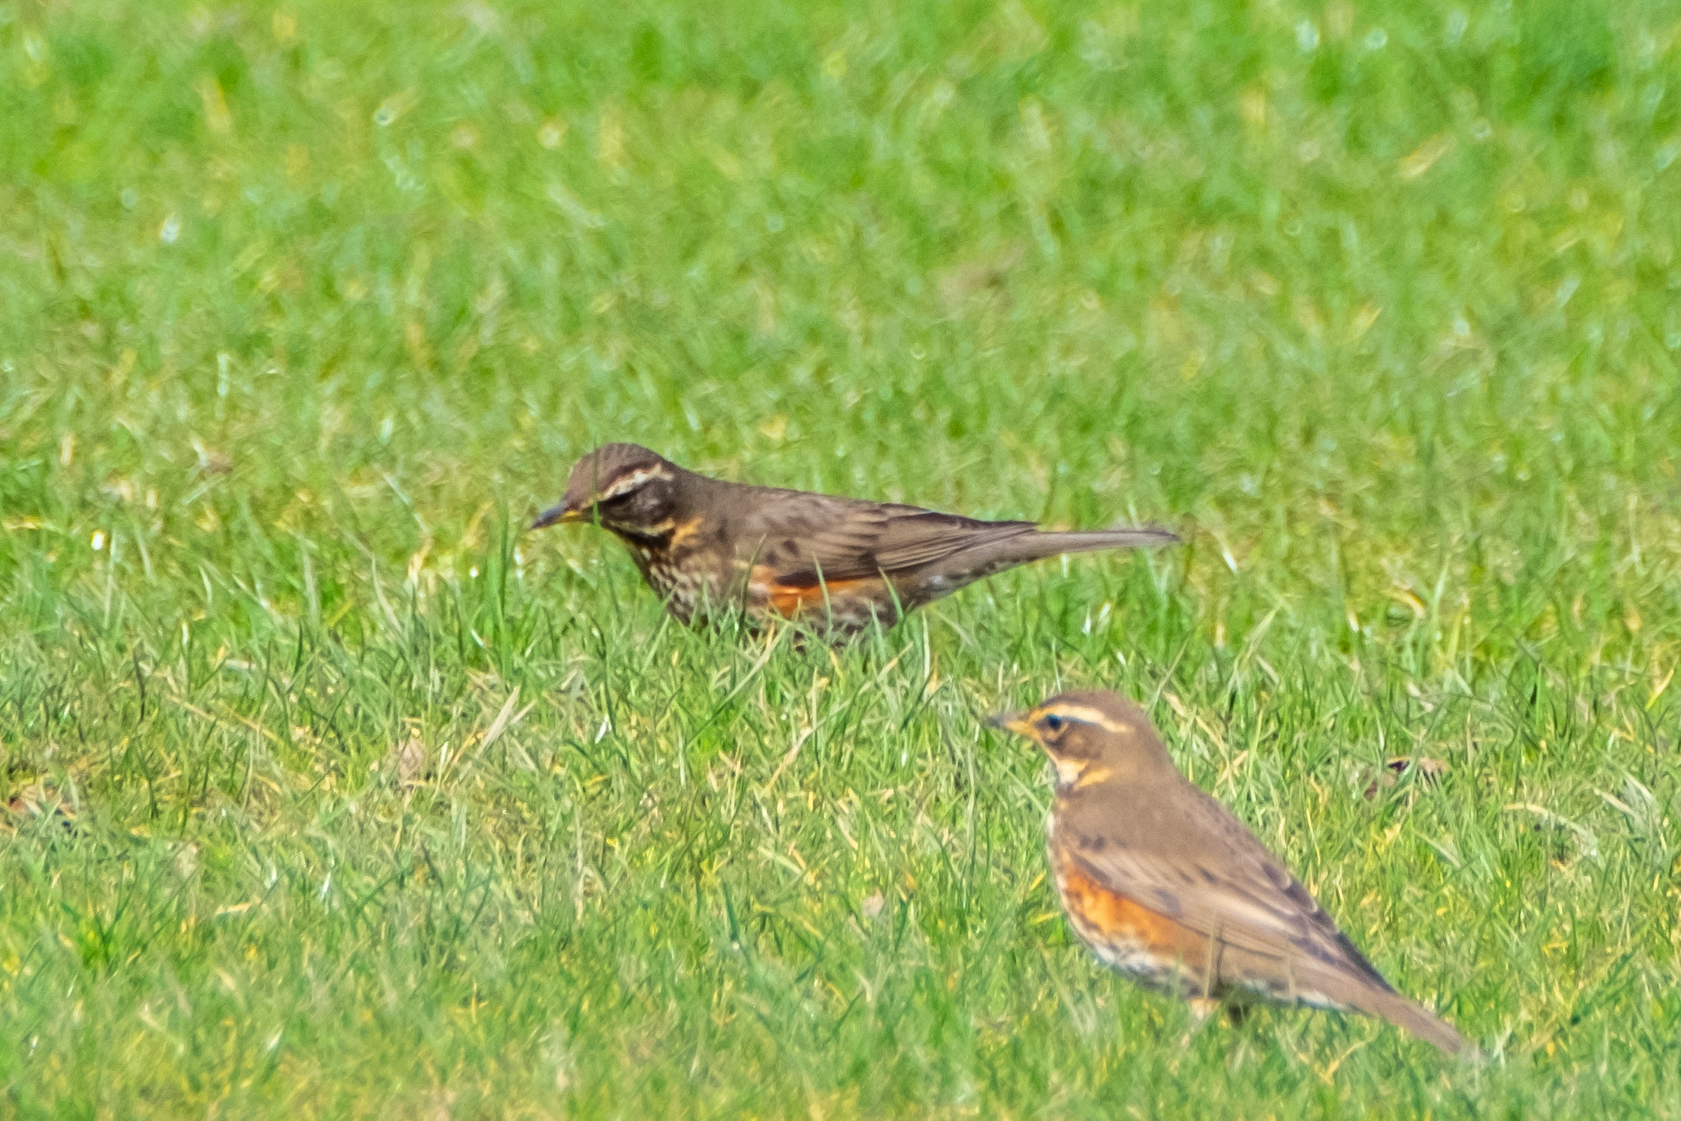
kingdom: Animalia
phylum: Chordata
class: Aves
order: Passeriformes
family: Turdidae
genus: Turdus
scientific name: Turdus iliacus
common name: Redwing
